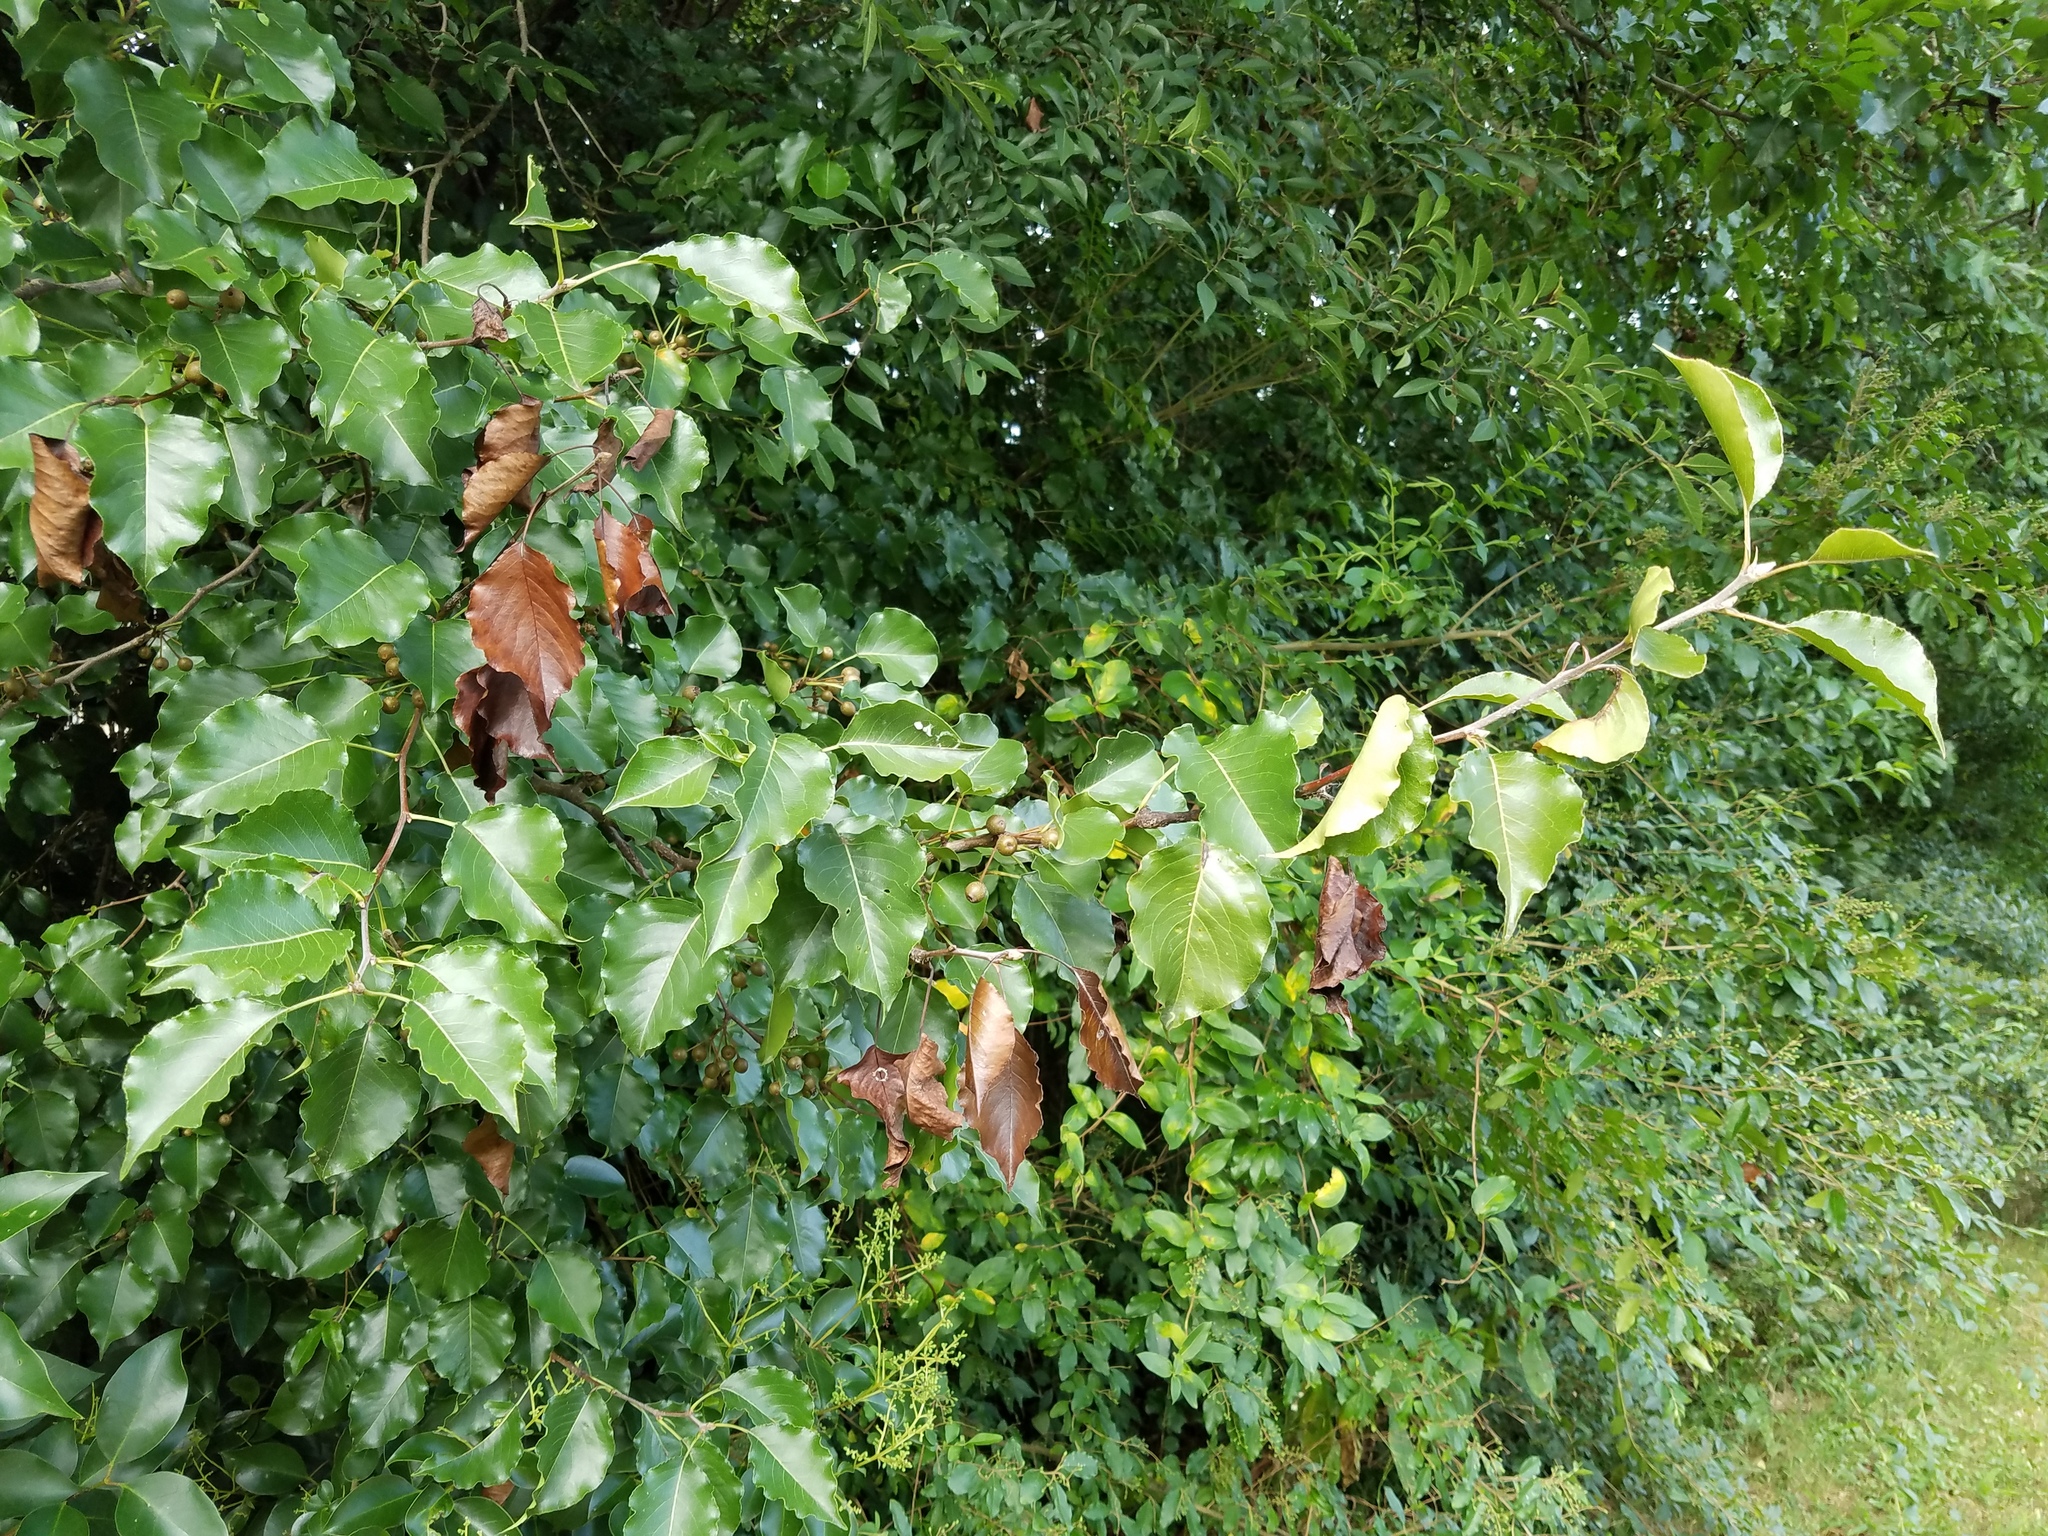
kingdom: Plantae
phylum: Tracheophyta
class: Magnoliopsida
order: Rosales
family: Rosaceae
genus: Pyrus
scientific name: Pyrus calleryana
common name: Callery pear
